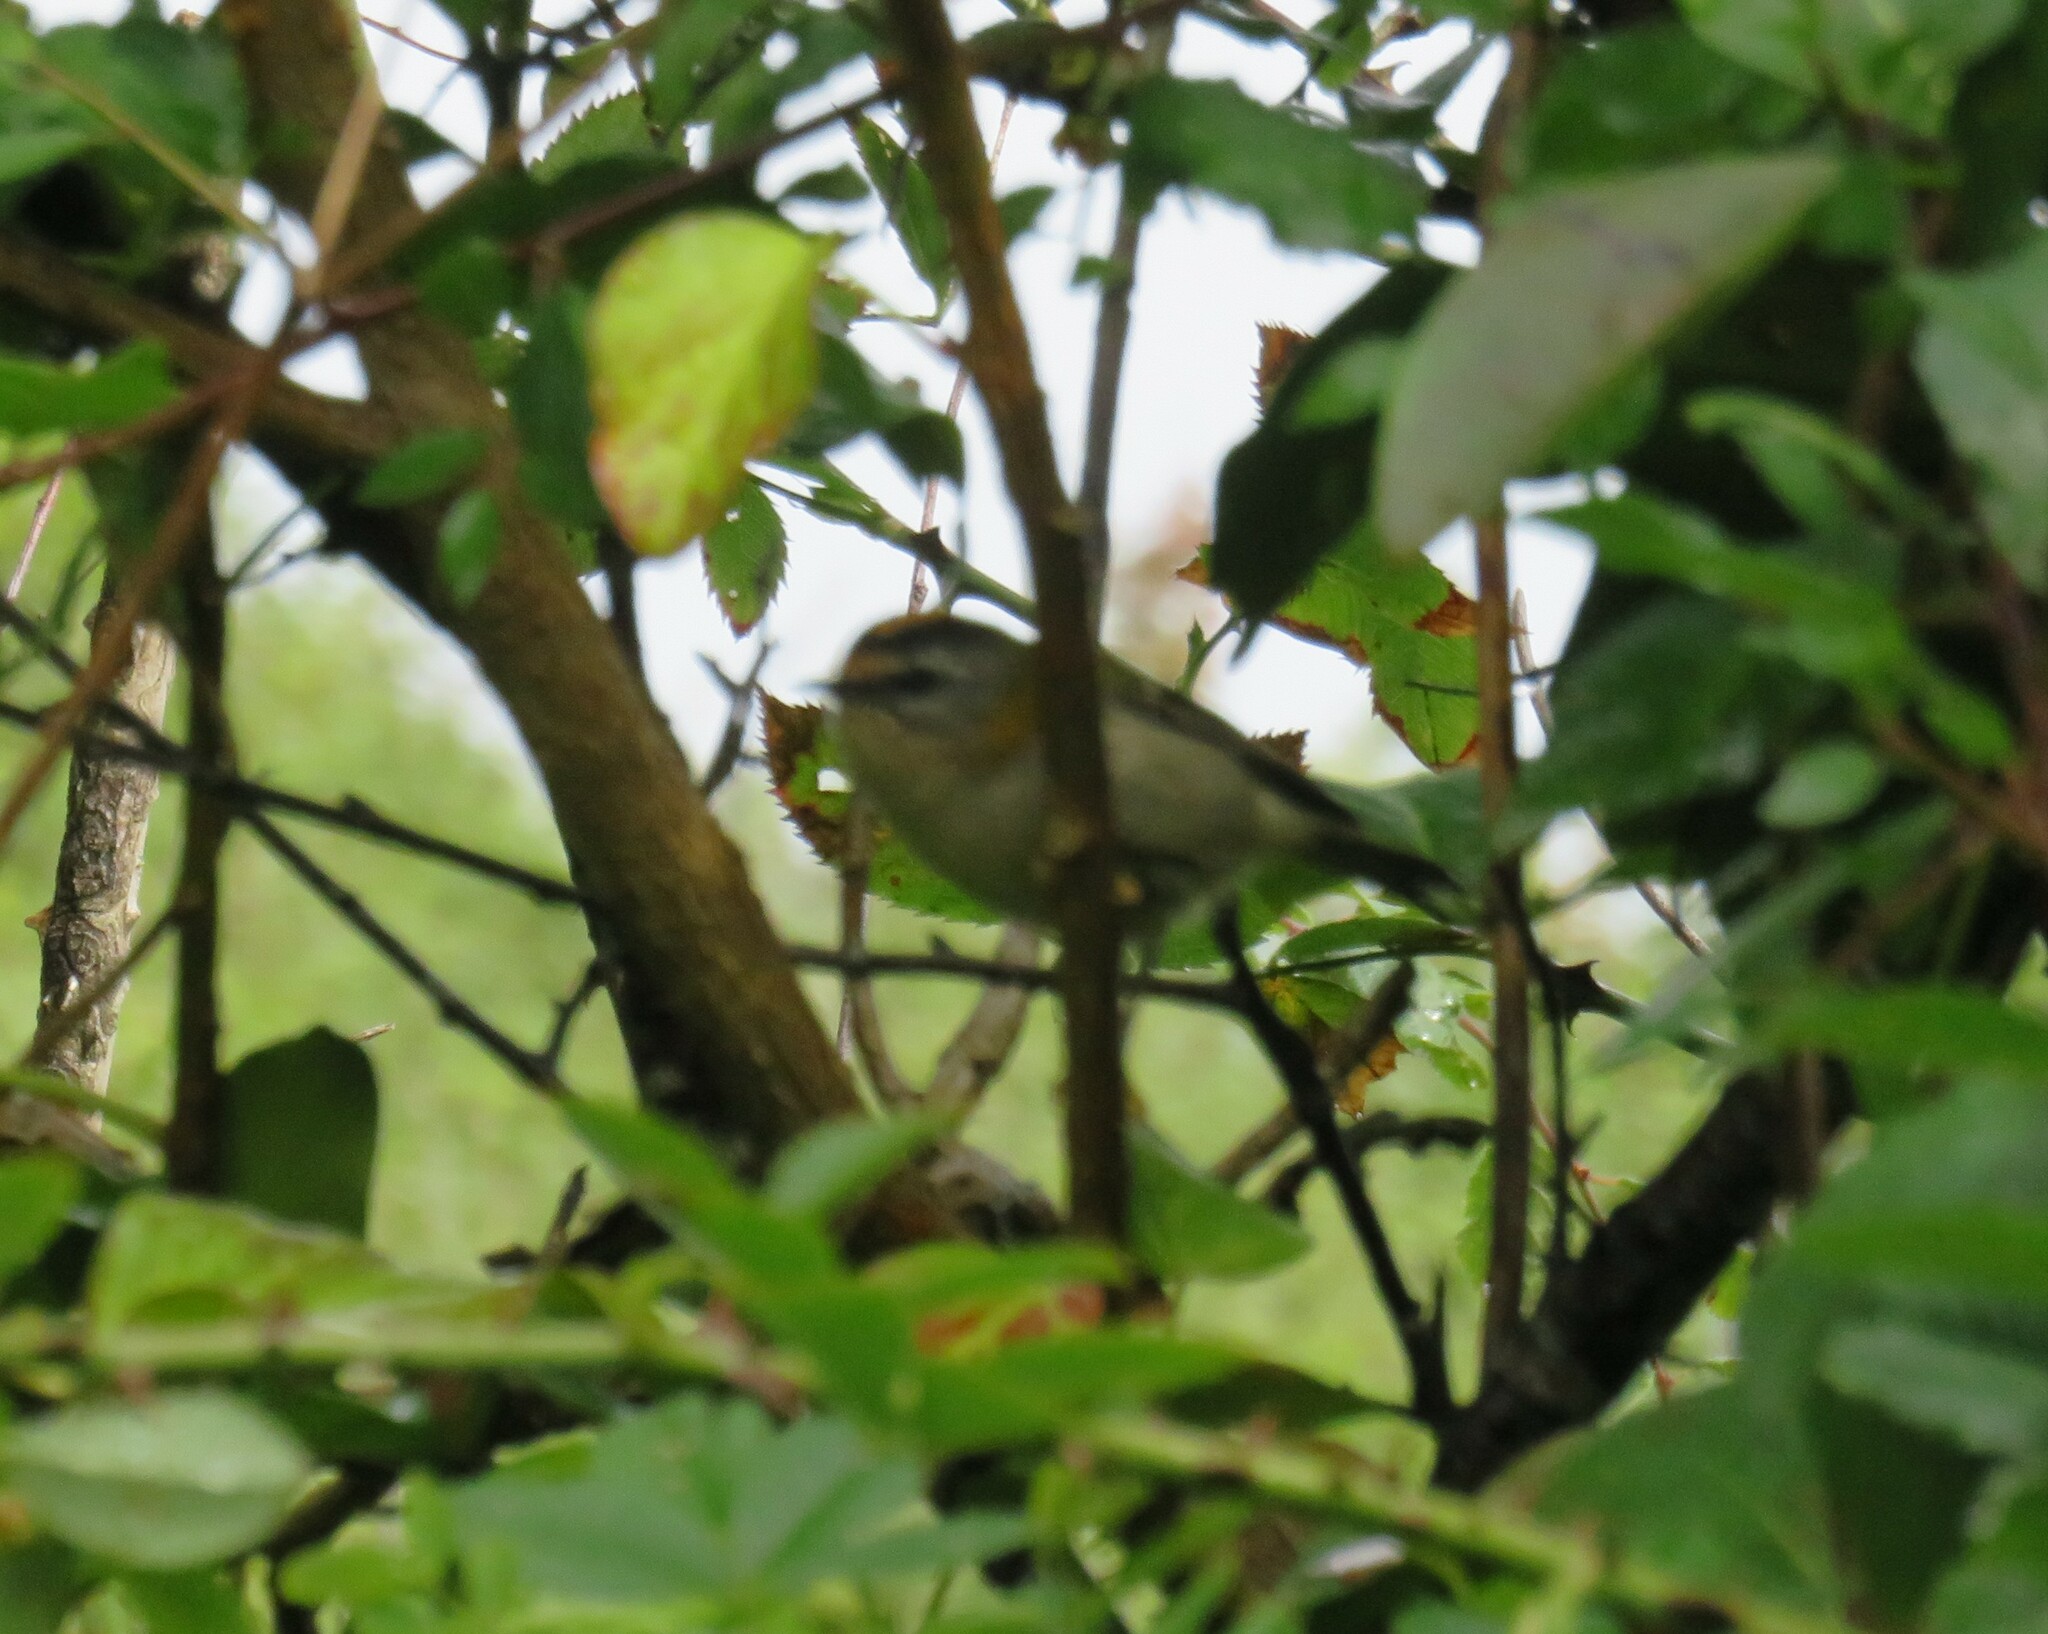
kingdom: Animalia
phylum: Chordata
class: Aves
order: Passeriformes
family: Regulidae
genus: Regulus
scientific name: Regulus ignicapilla
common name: Firecrest
